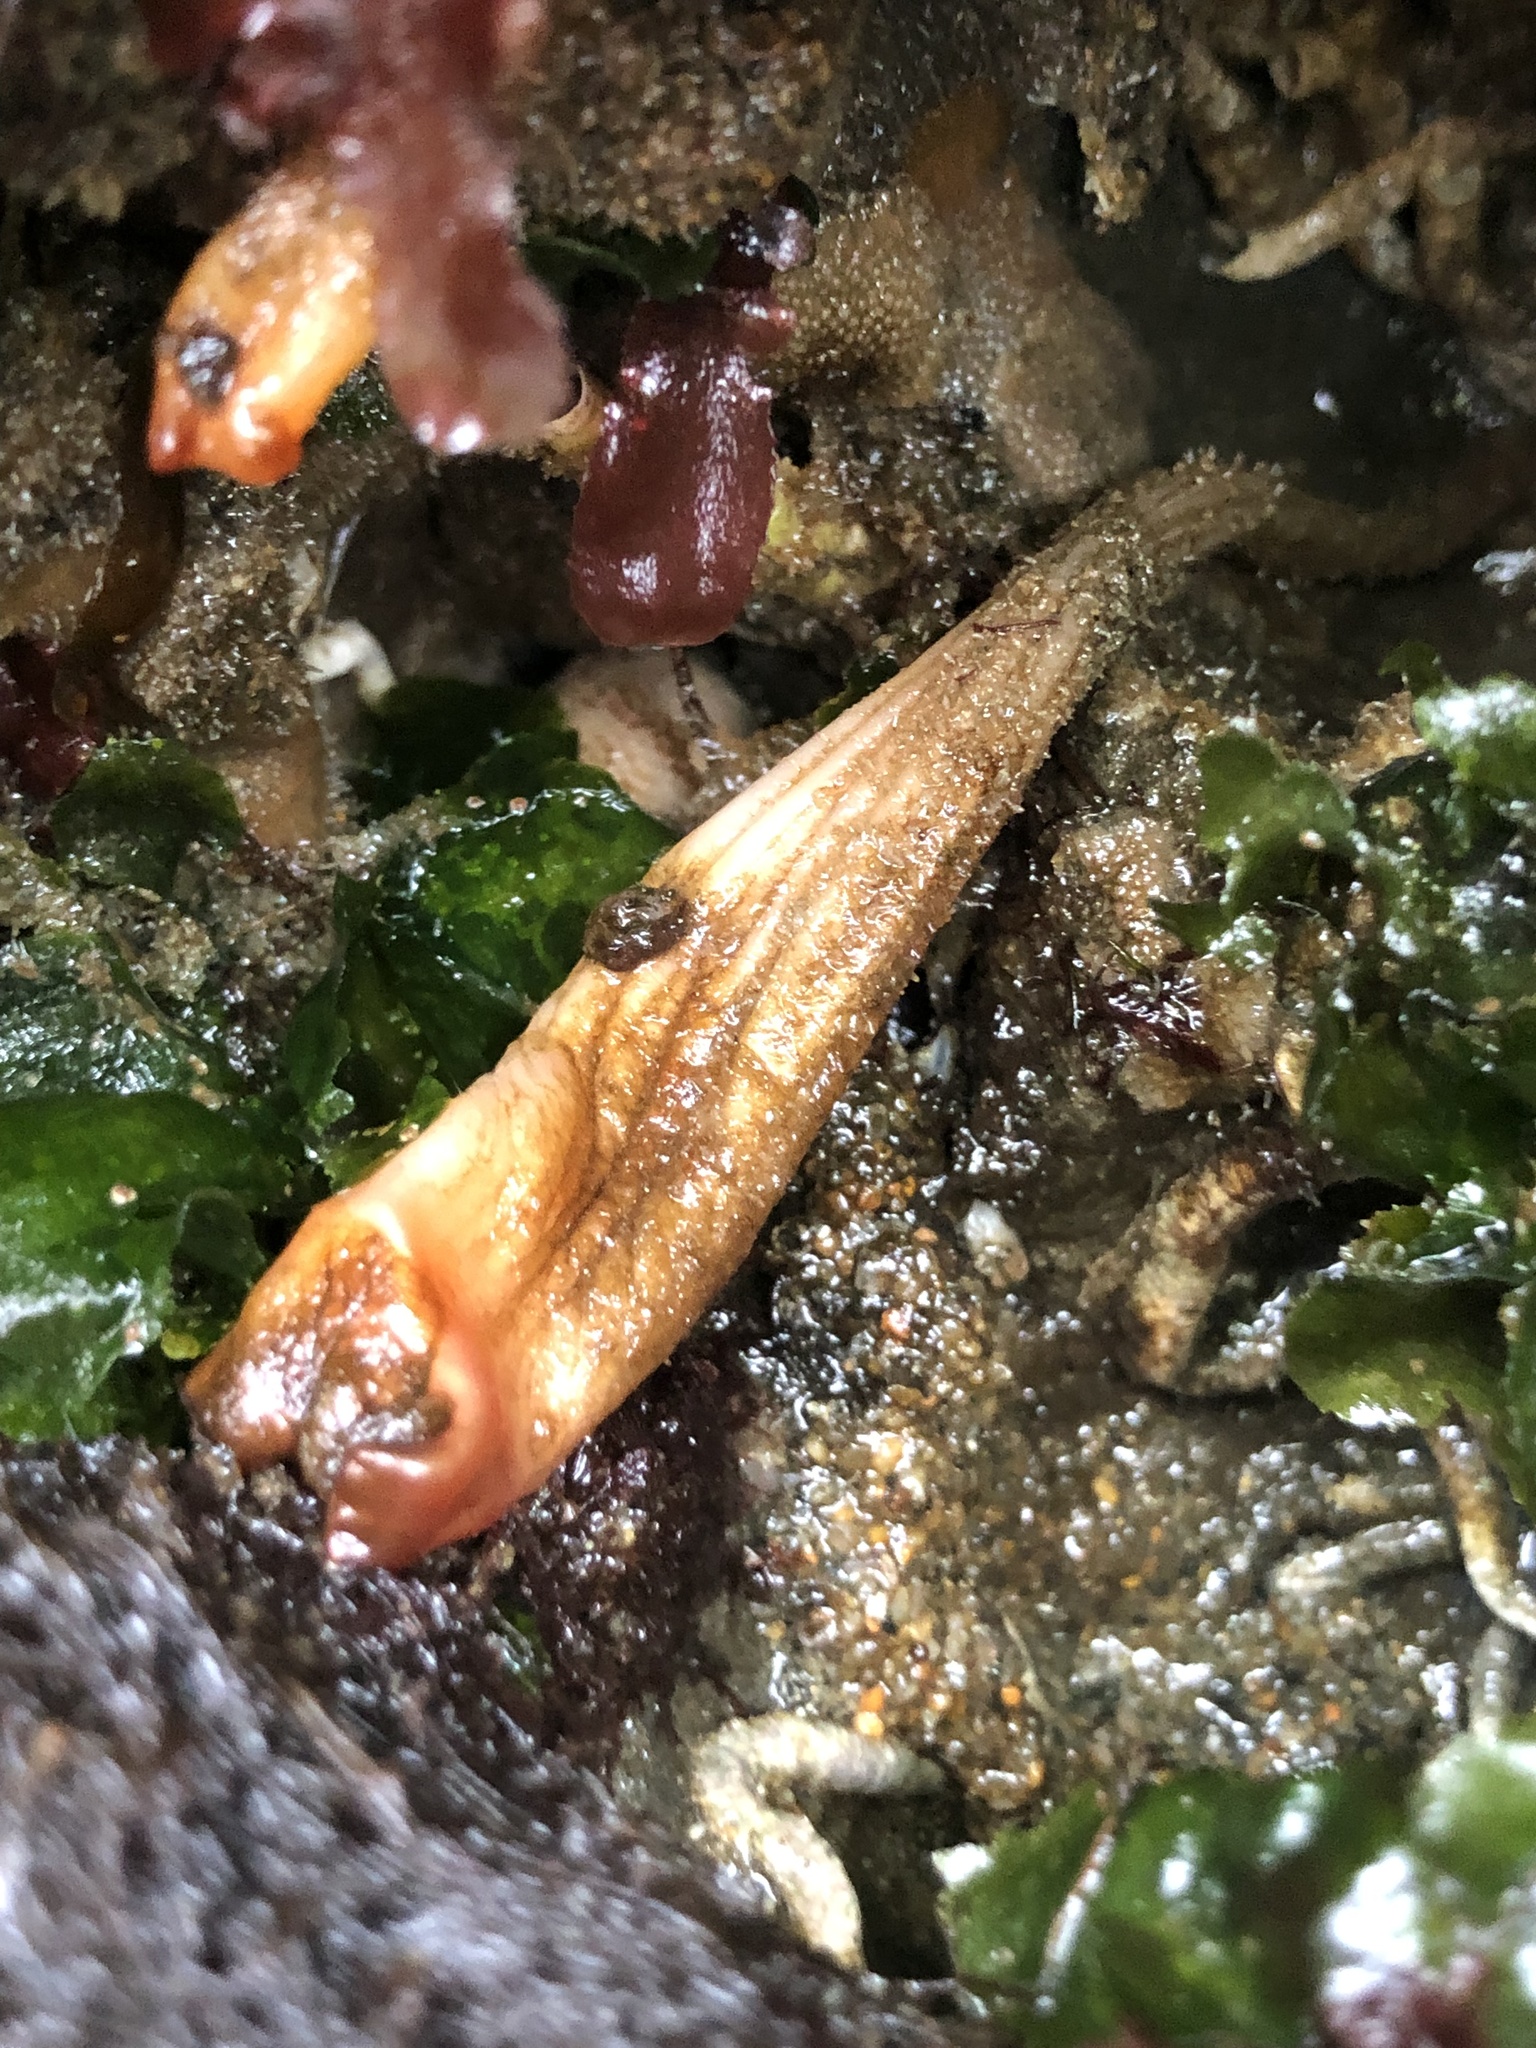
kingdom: Animalia
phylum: Chordata
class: Ascidiacea
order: Stolidobranchia
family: Styelidae
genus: Styela
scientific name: Styela montereyensis
